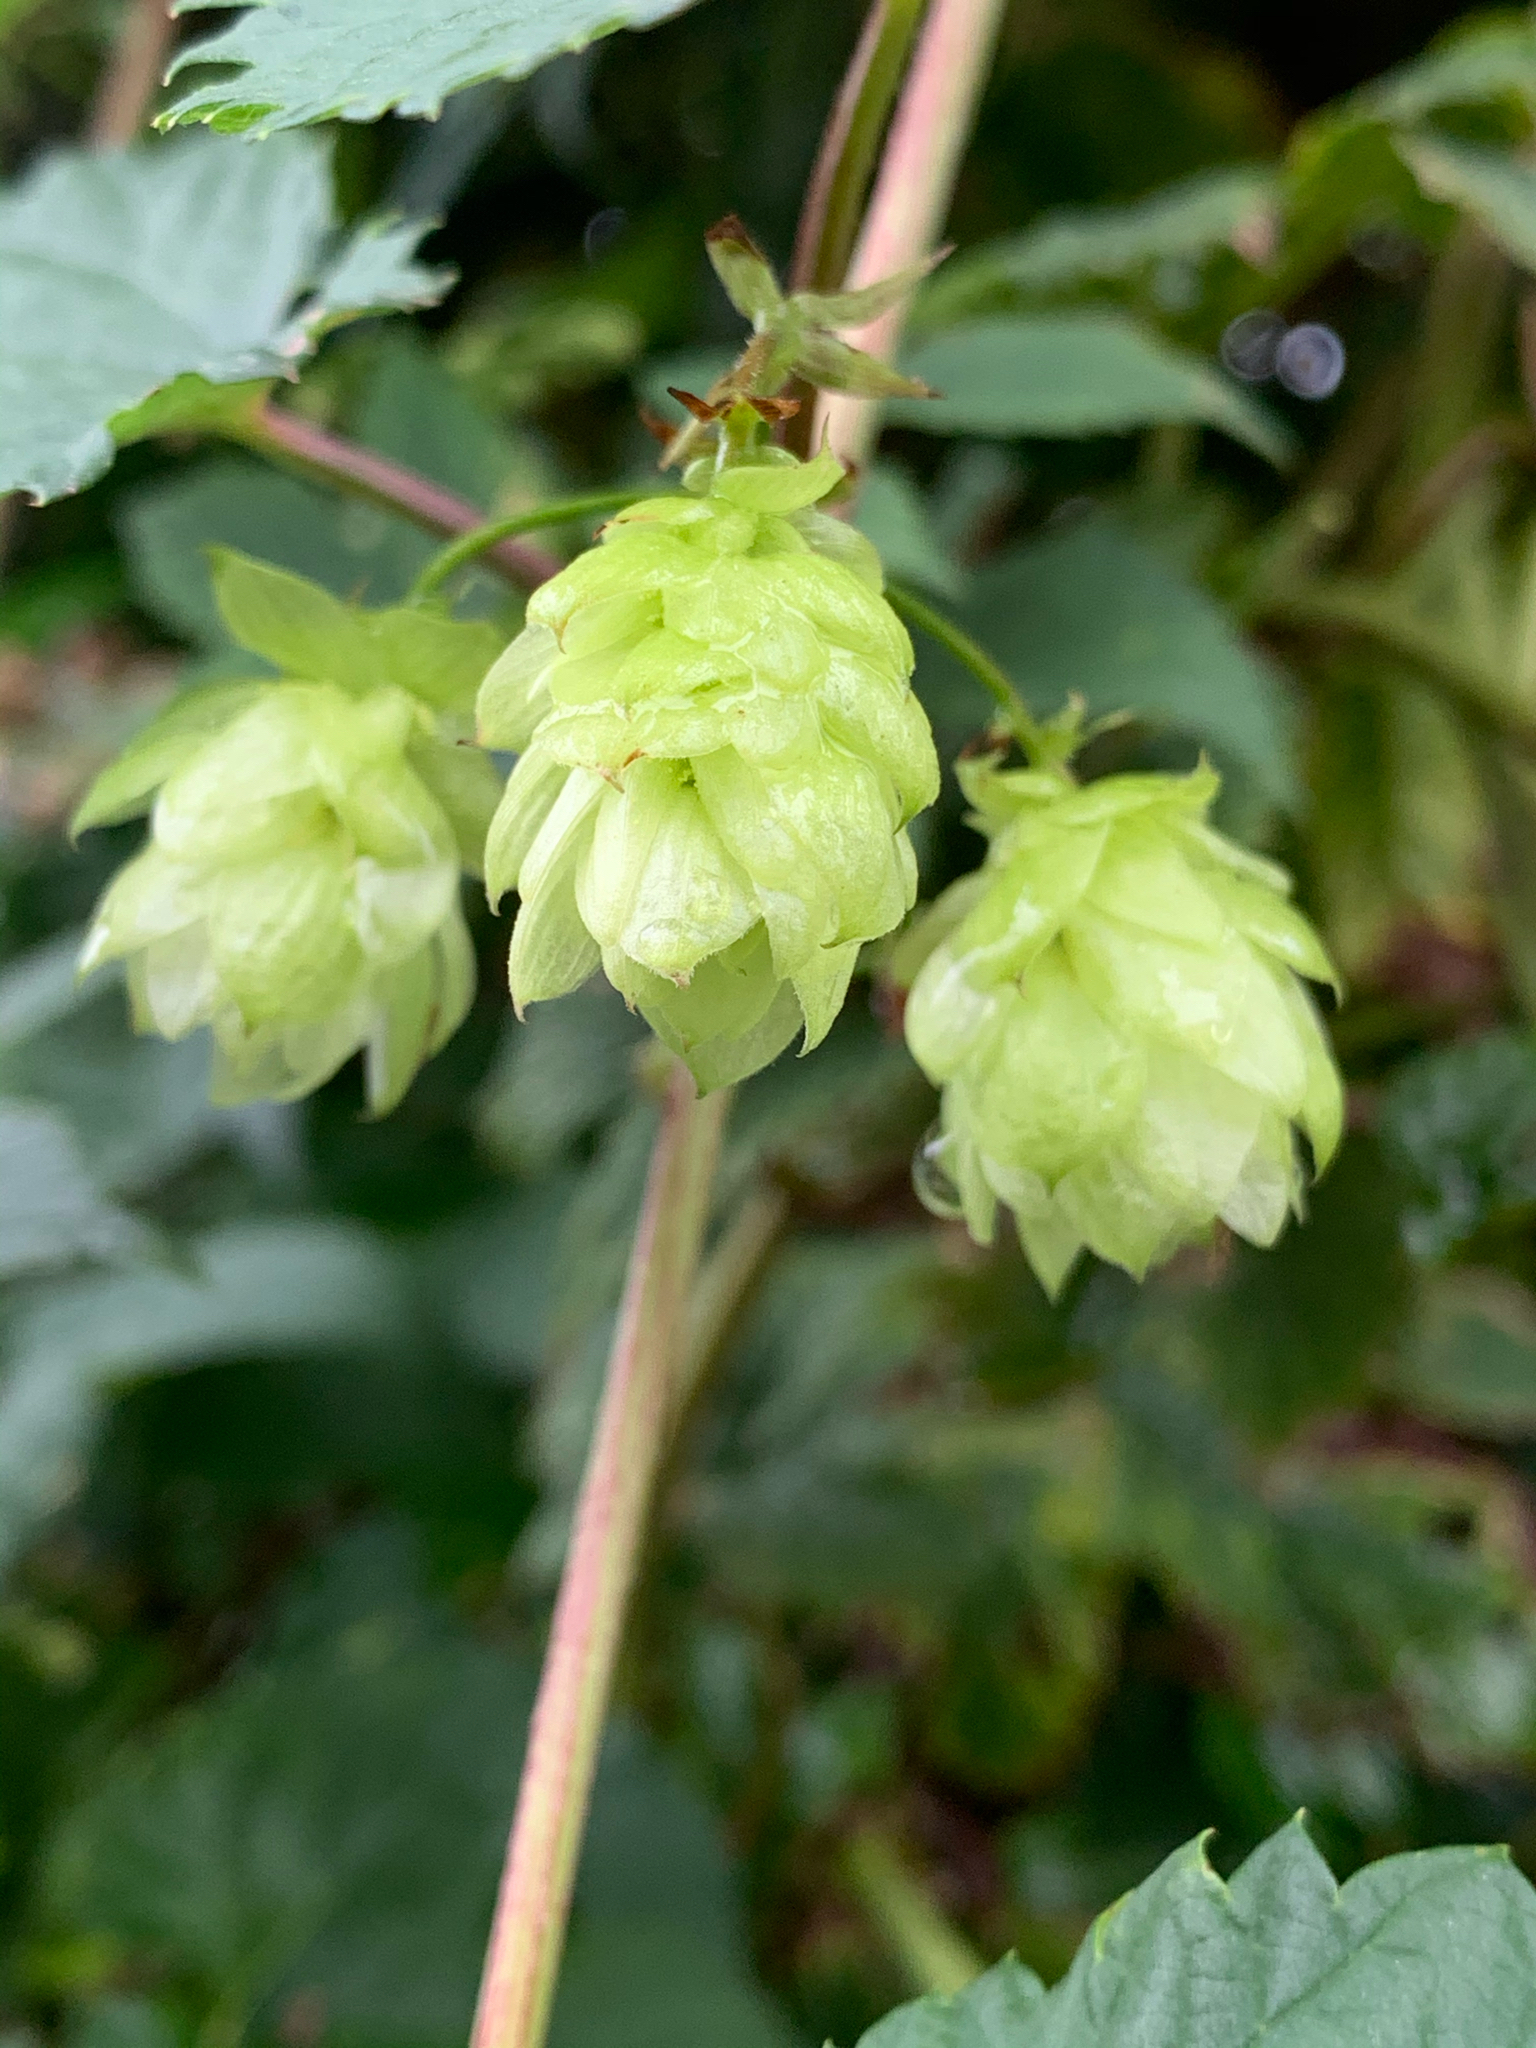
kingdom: Plantae
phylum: Tracheophyta
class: Magnoliopsida
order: Rosales
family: Cannabaceae
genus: Humulus
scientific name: Humulus lupulus
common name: Hop
